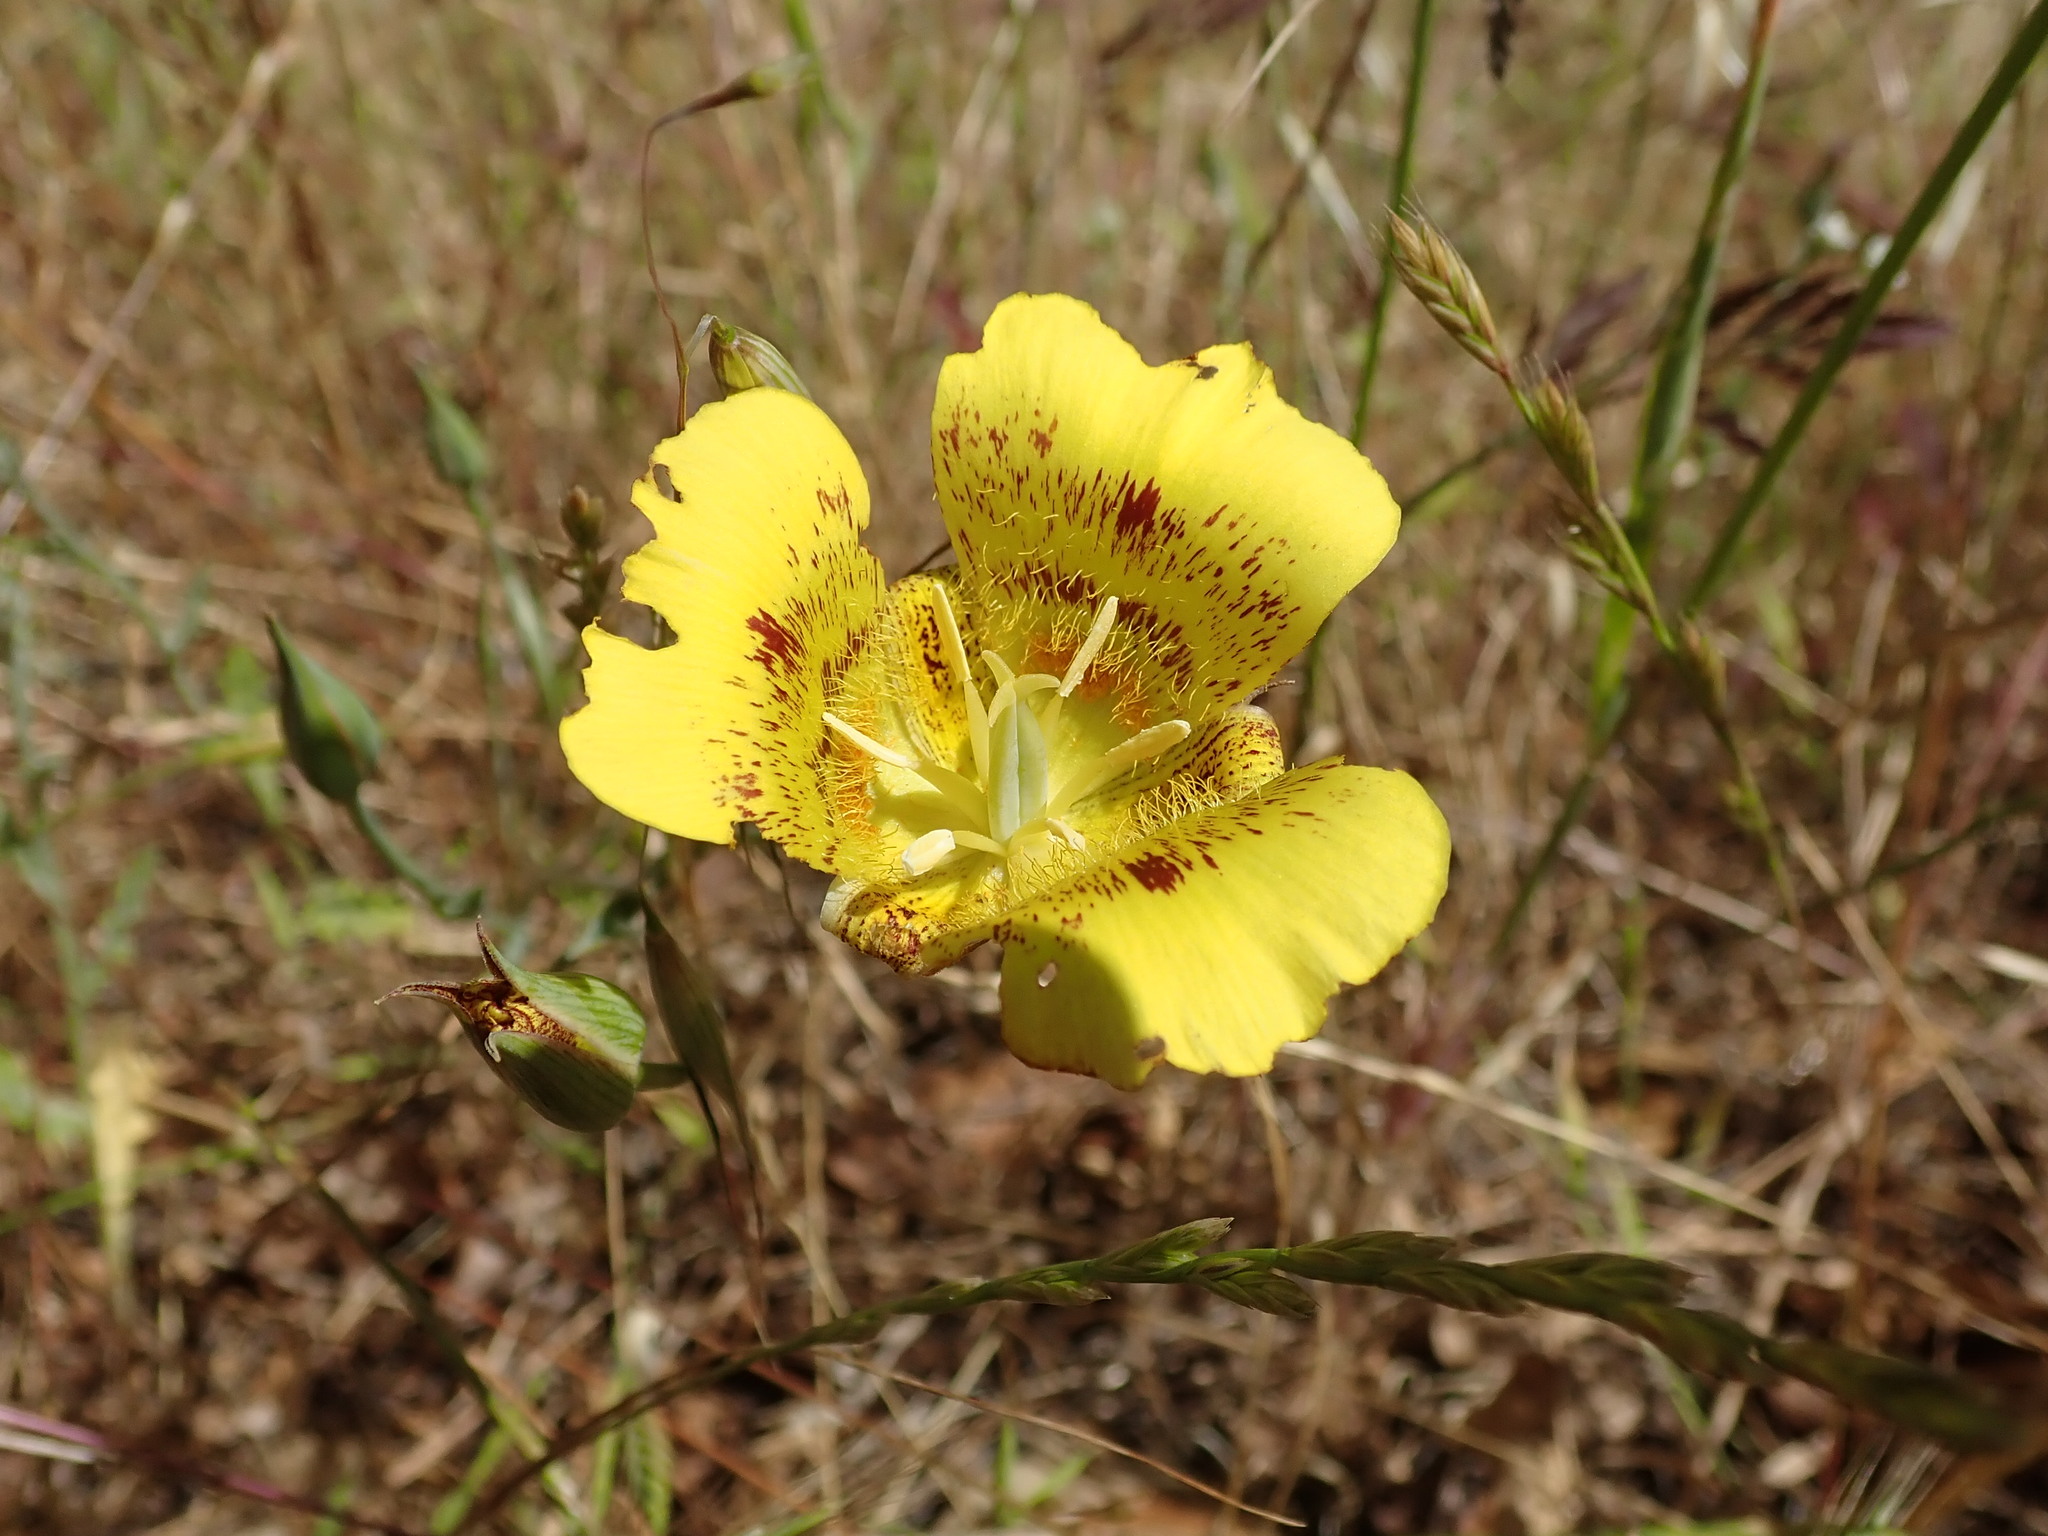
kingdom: Plantae
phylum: Tracheophyta
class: Liliopsida
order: Liliales
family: Liliaceae
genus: Calochortus
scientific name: Calochortus luteus
